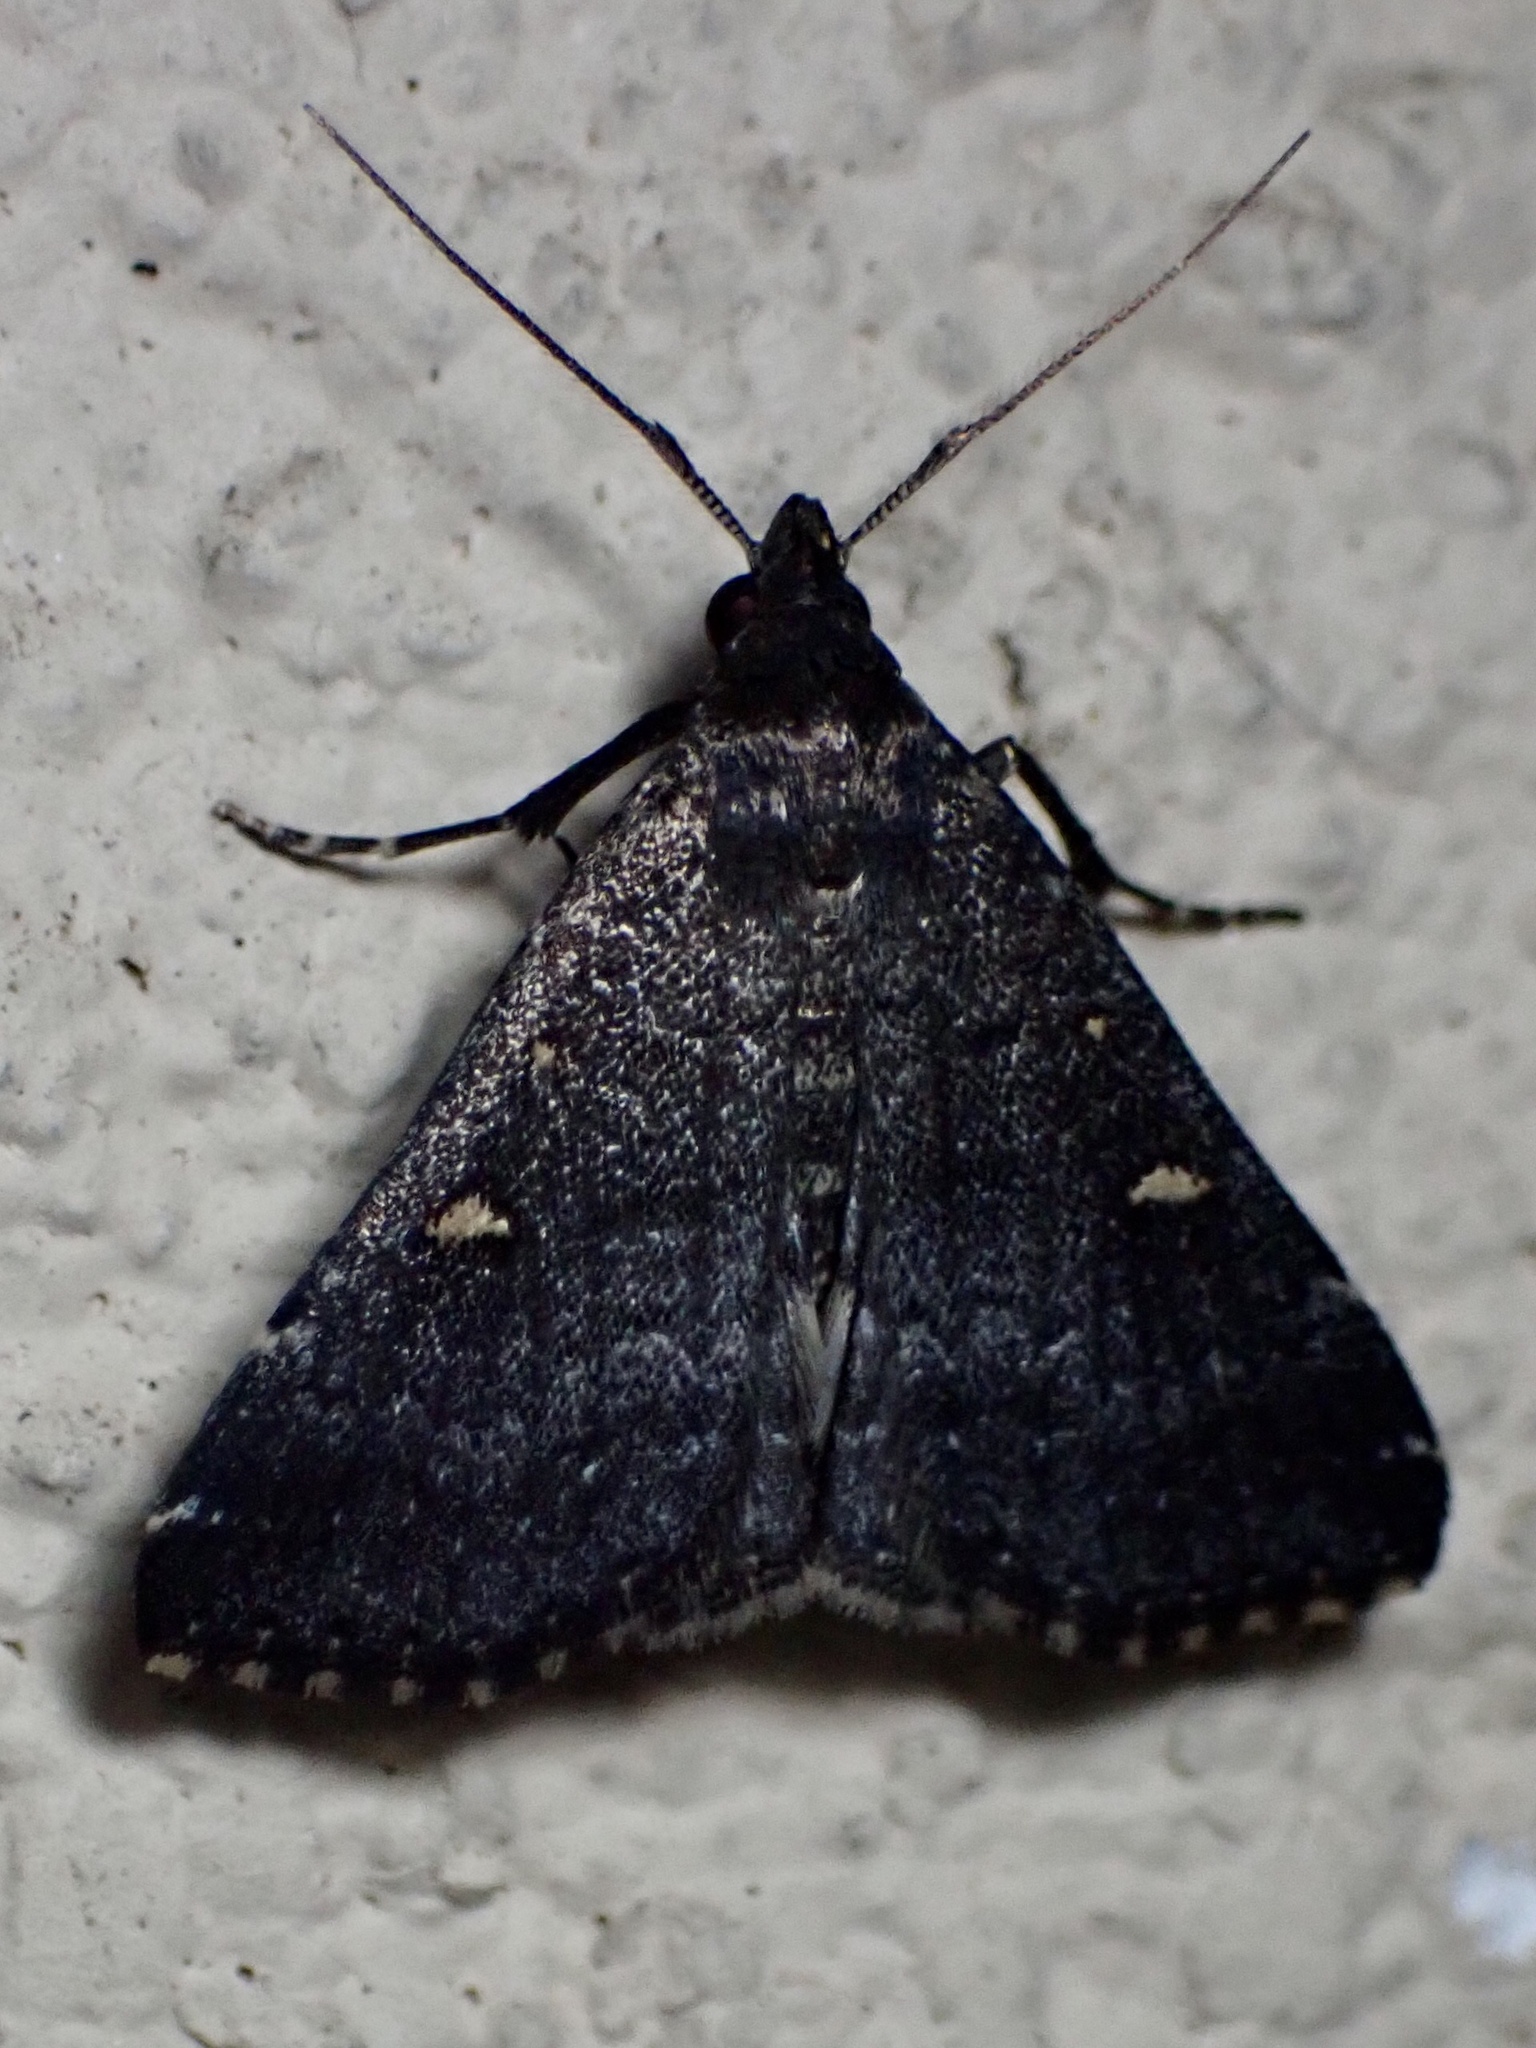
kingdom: Animalia
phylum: Arthropoda
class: Insecta
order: Lepidoptera
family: Erebidae
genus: Tetanolita
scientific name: Tetanolita mynesalis
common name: Smoky tetanolita moth
